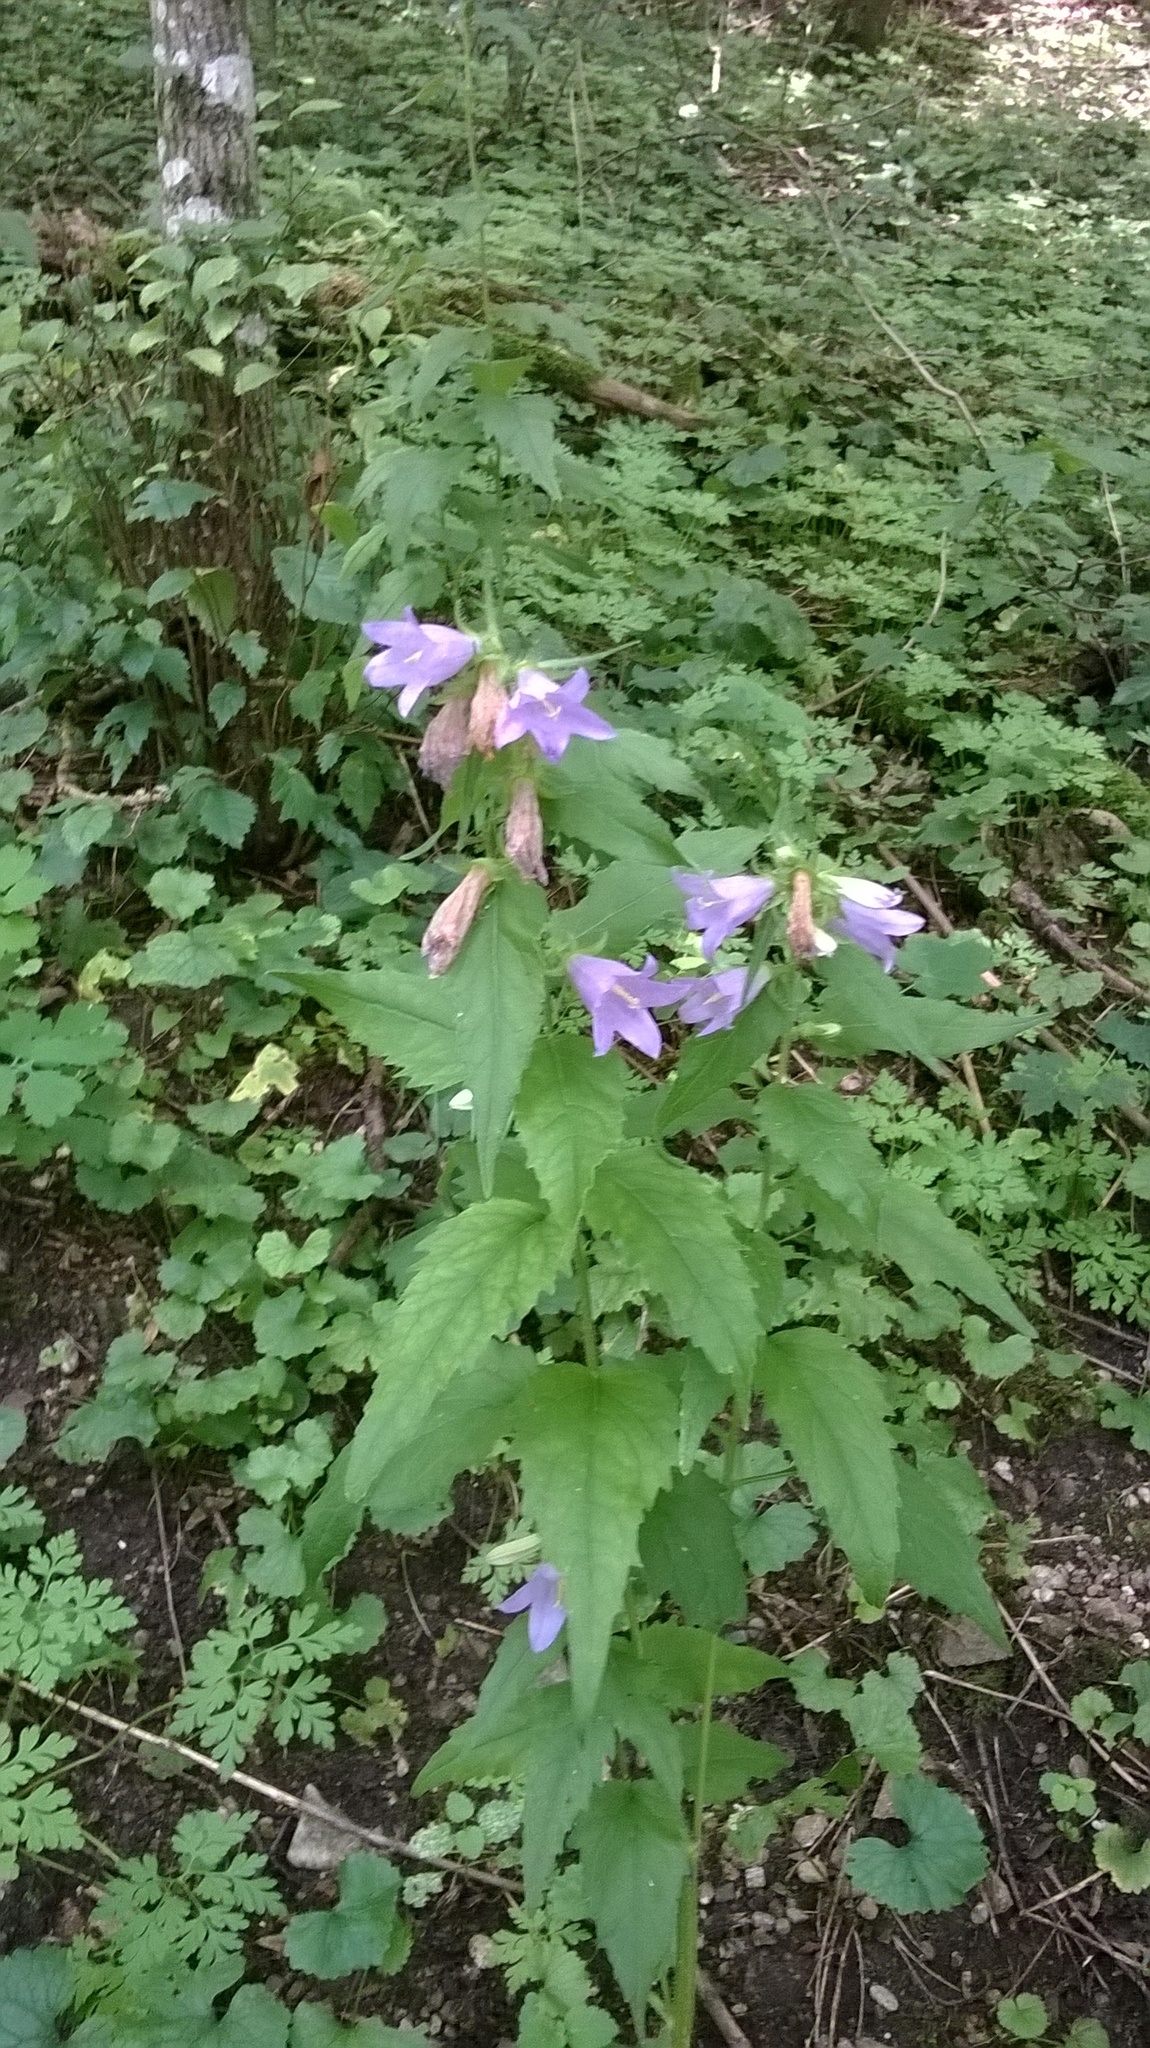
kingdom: Plantae
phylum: Tracheophyta
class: Magnoliopsida
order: Asterales
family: Campanulaceae
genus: Campanula
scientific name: Campanula trachelium
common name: Nettle-leaved bellflower
